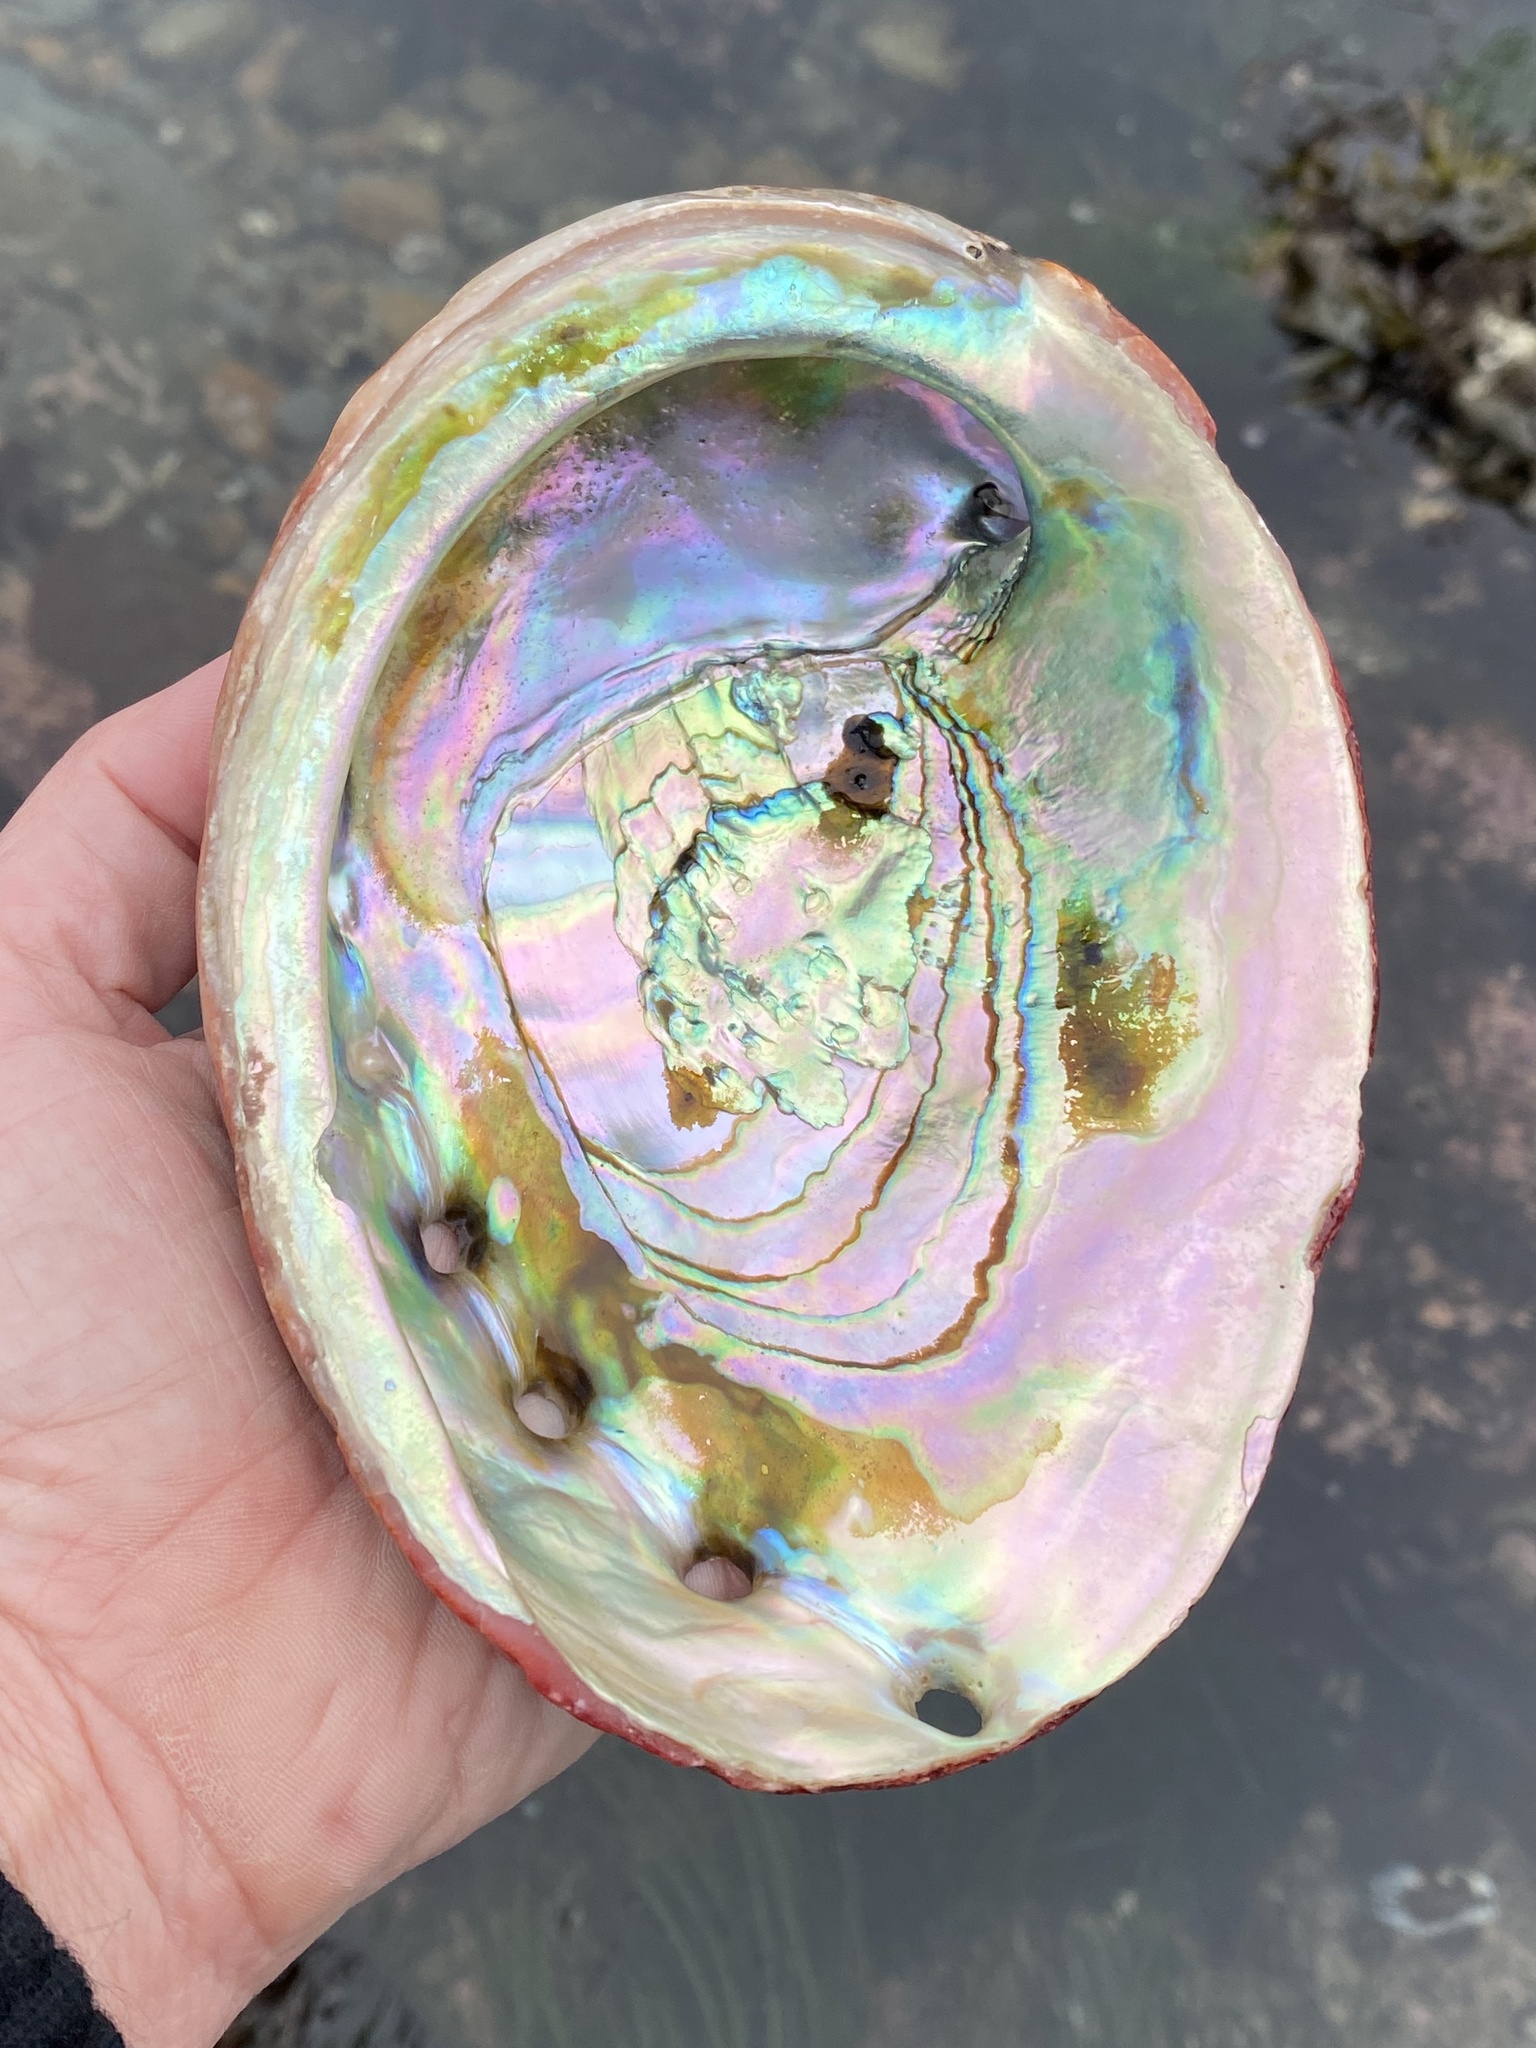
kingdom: Animalia
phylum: Mollusca
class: Gastropoda
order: Lepetellida
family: Haliotidae
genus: Haliotis
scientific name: Haliotis rufescens
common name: Red abalone
